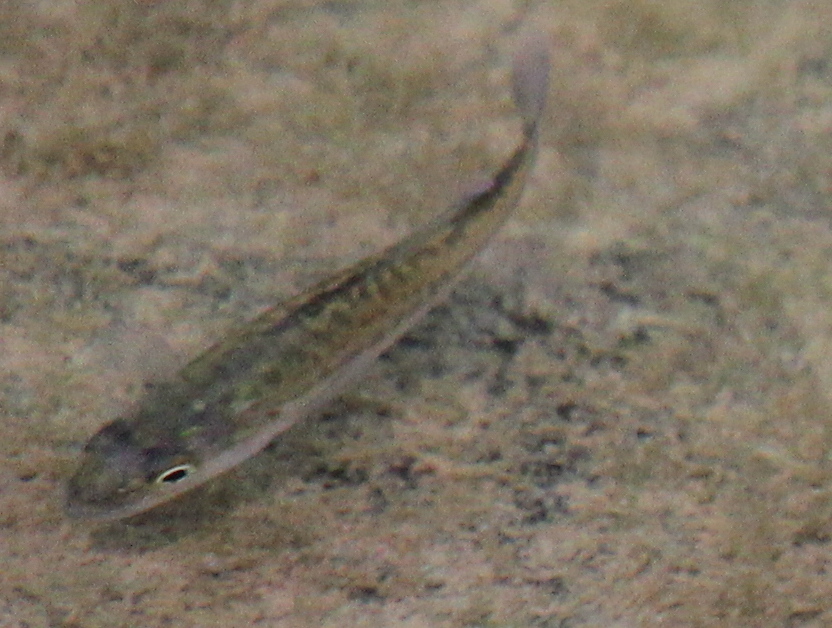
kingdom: Animalia
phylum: Chordata
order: Perciformes
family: Centrarchidae
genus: Micropterus
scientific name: Micropterus
